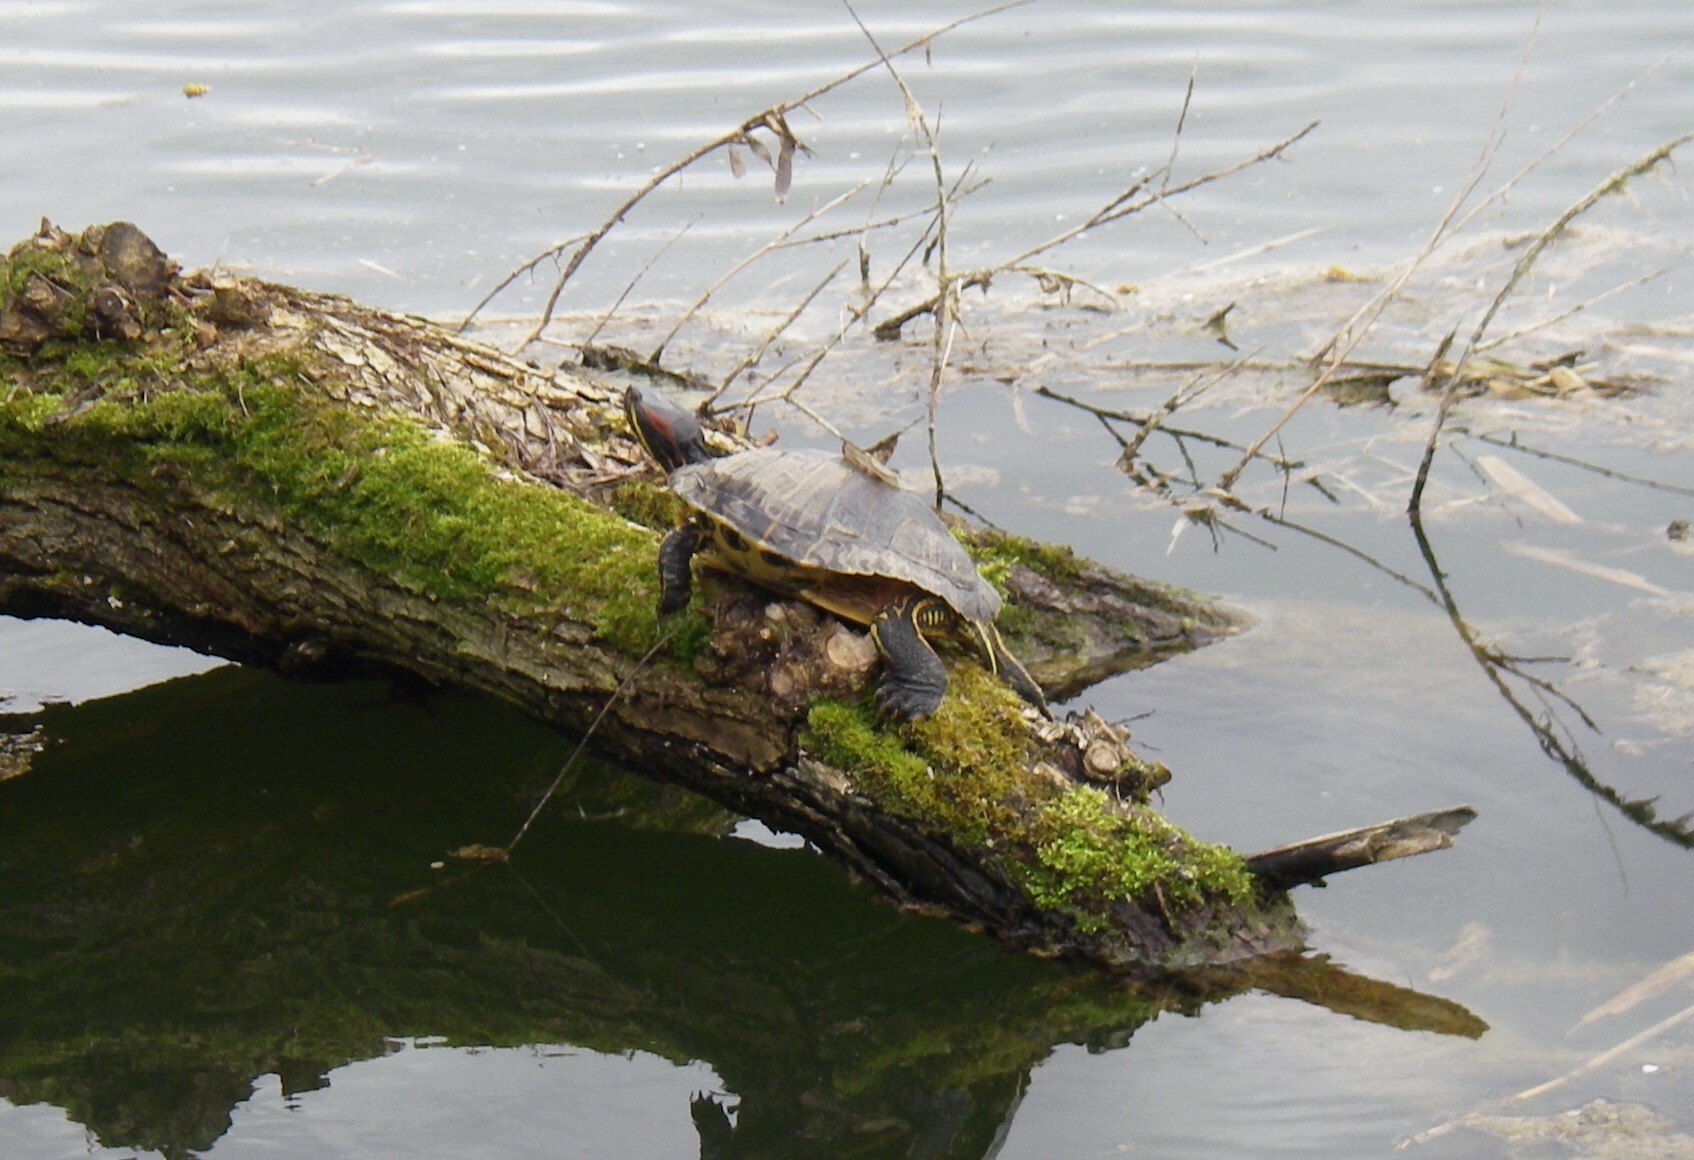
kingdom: Animalia
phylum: Chordata
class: Testudines
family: Emydidae
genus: Trachemys
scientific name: Trachemys scripta
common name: Slider
